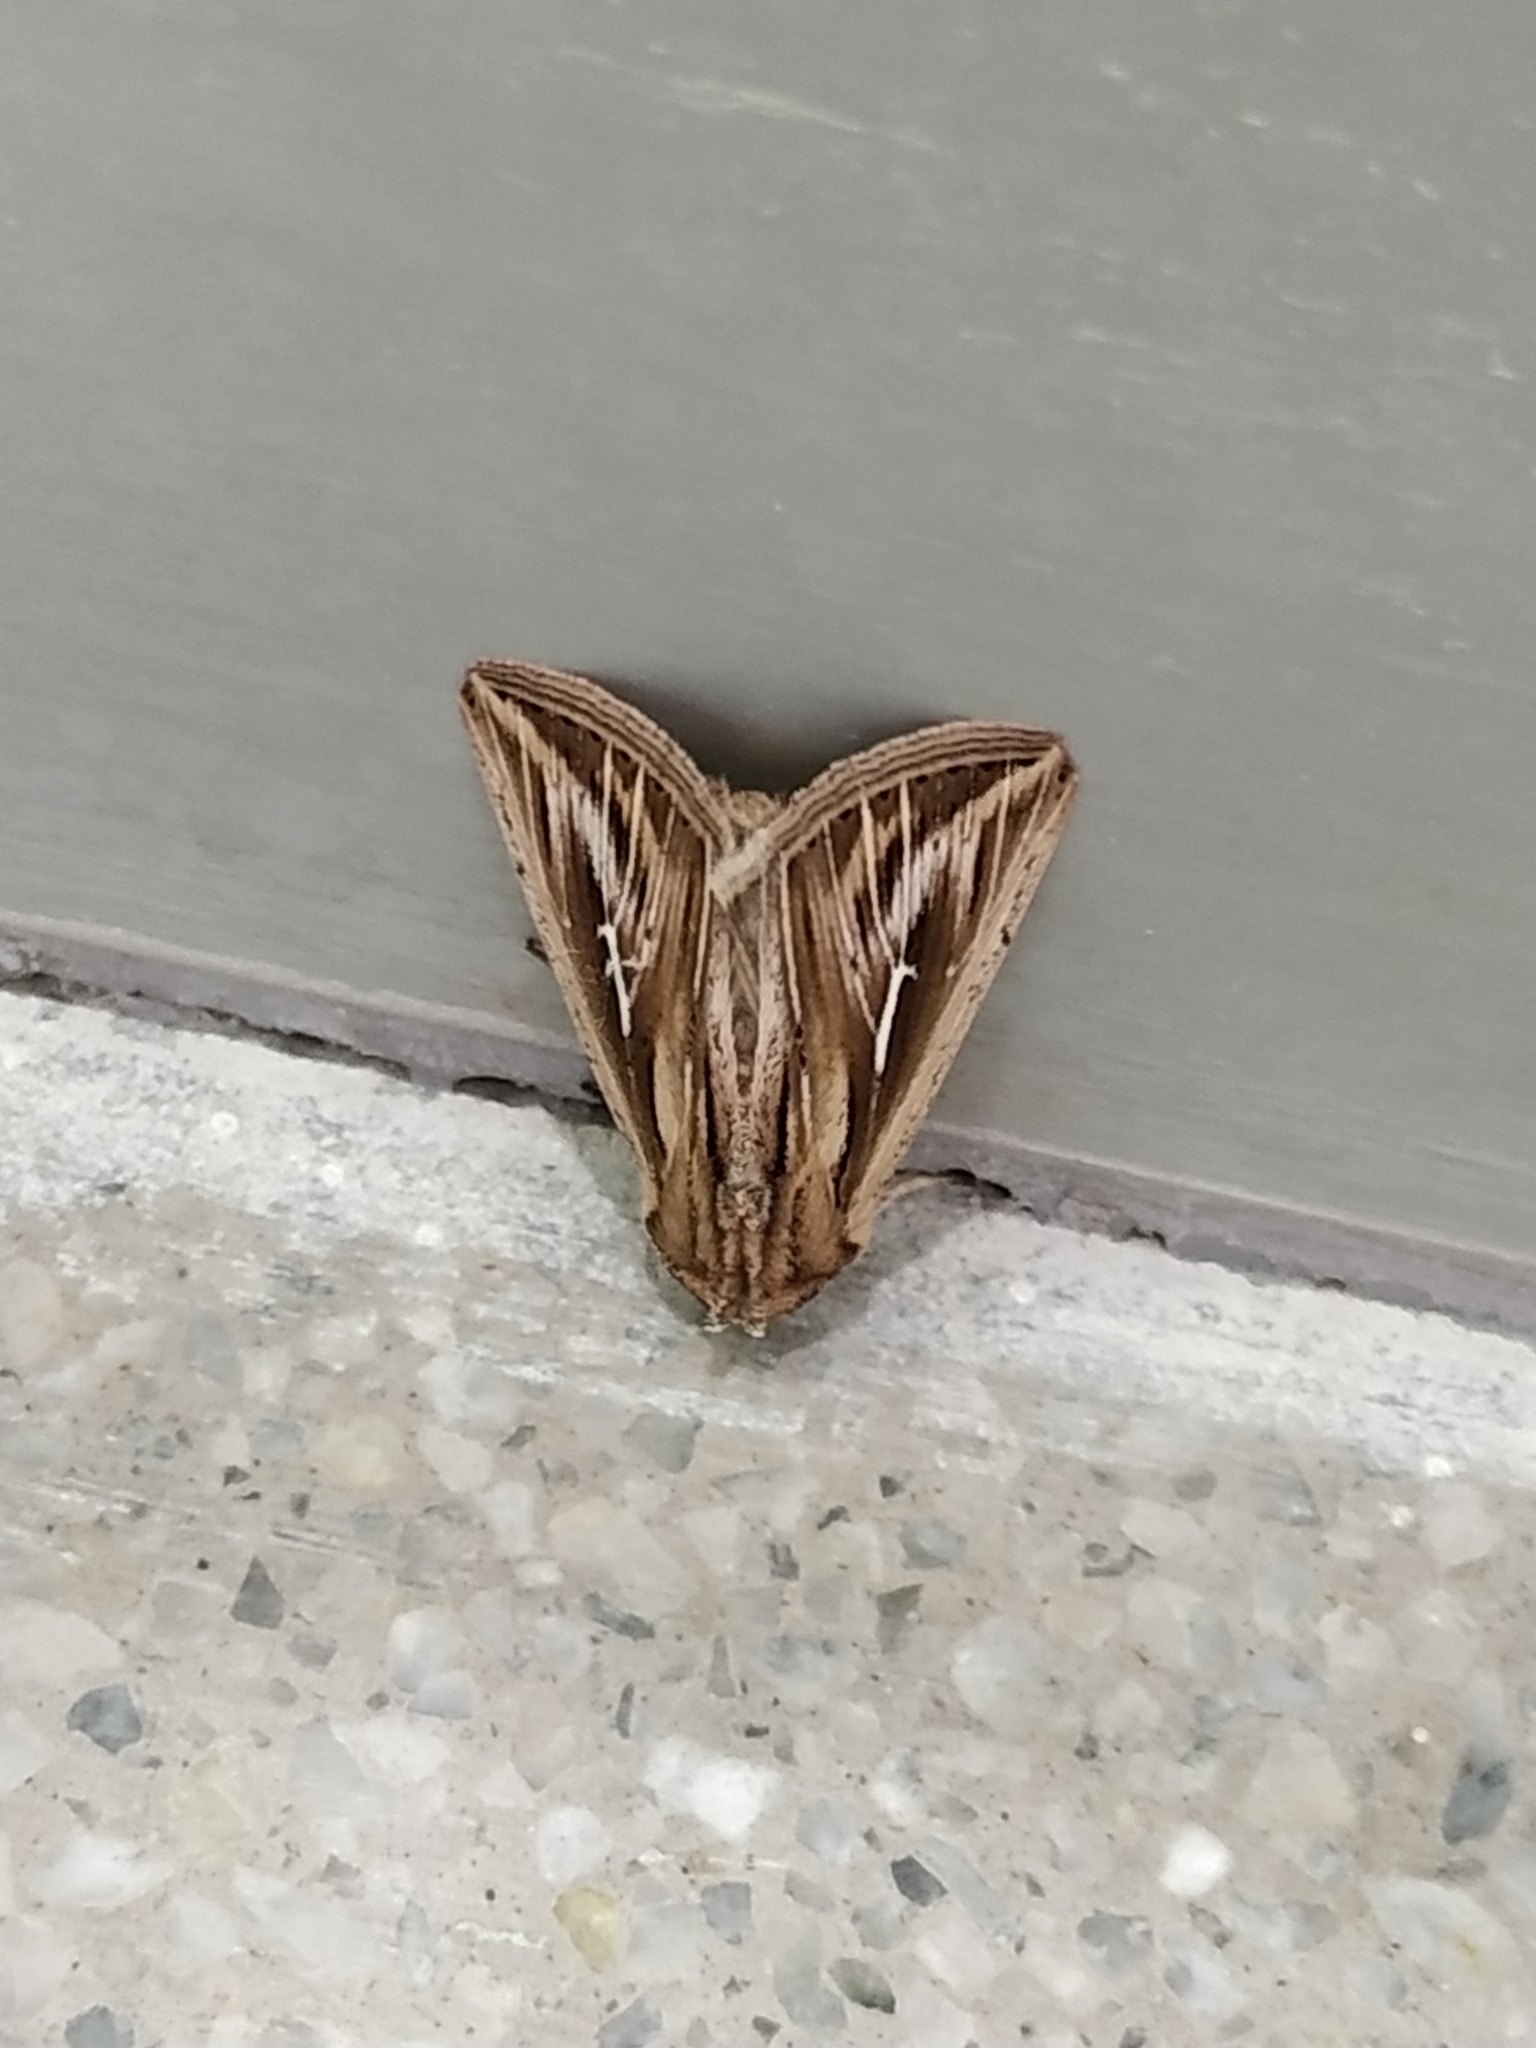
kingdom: Animalia
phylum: Arthropoda
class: Insecta
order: Lepidoptera
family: Noctuidae
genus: Mythimna
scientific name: Mythimna l-album
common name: L-album wainscot
